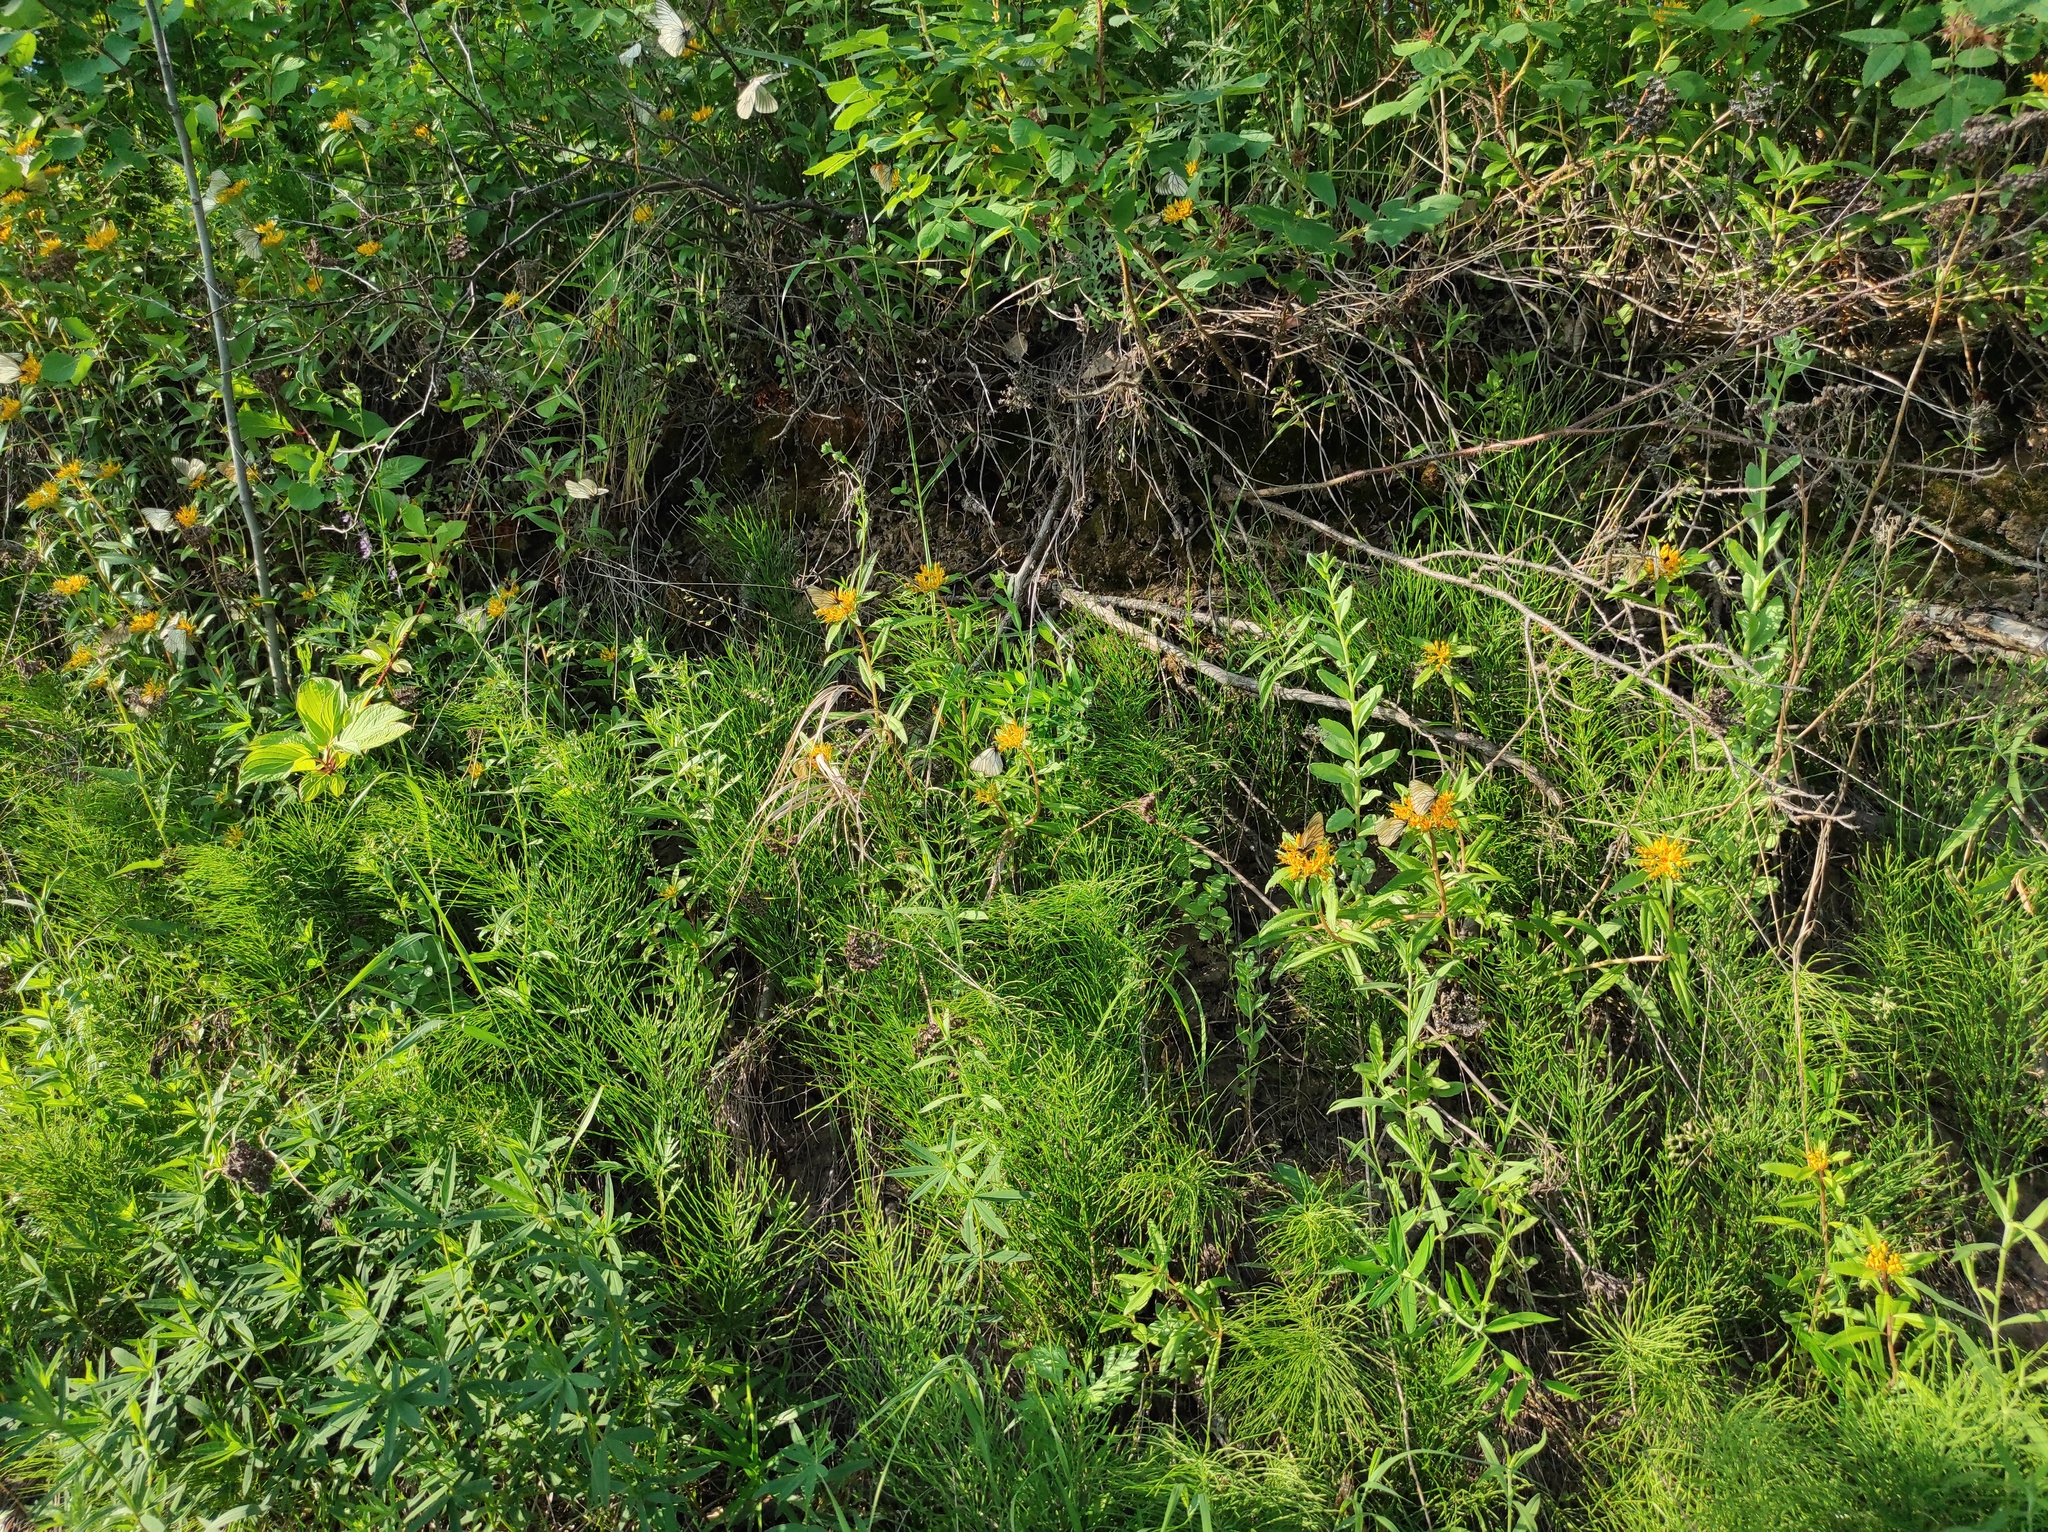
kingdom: Plantae
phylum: Tracheophyta
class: Magnoliopsida
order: Saxifragales
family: Crassulaceae
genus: Phedimus
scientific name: Phedimus aizoon
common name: Orpin aizoon
